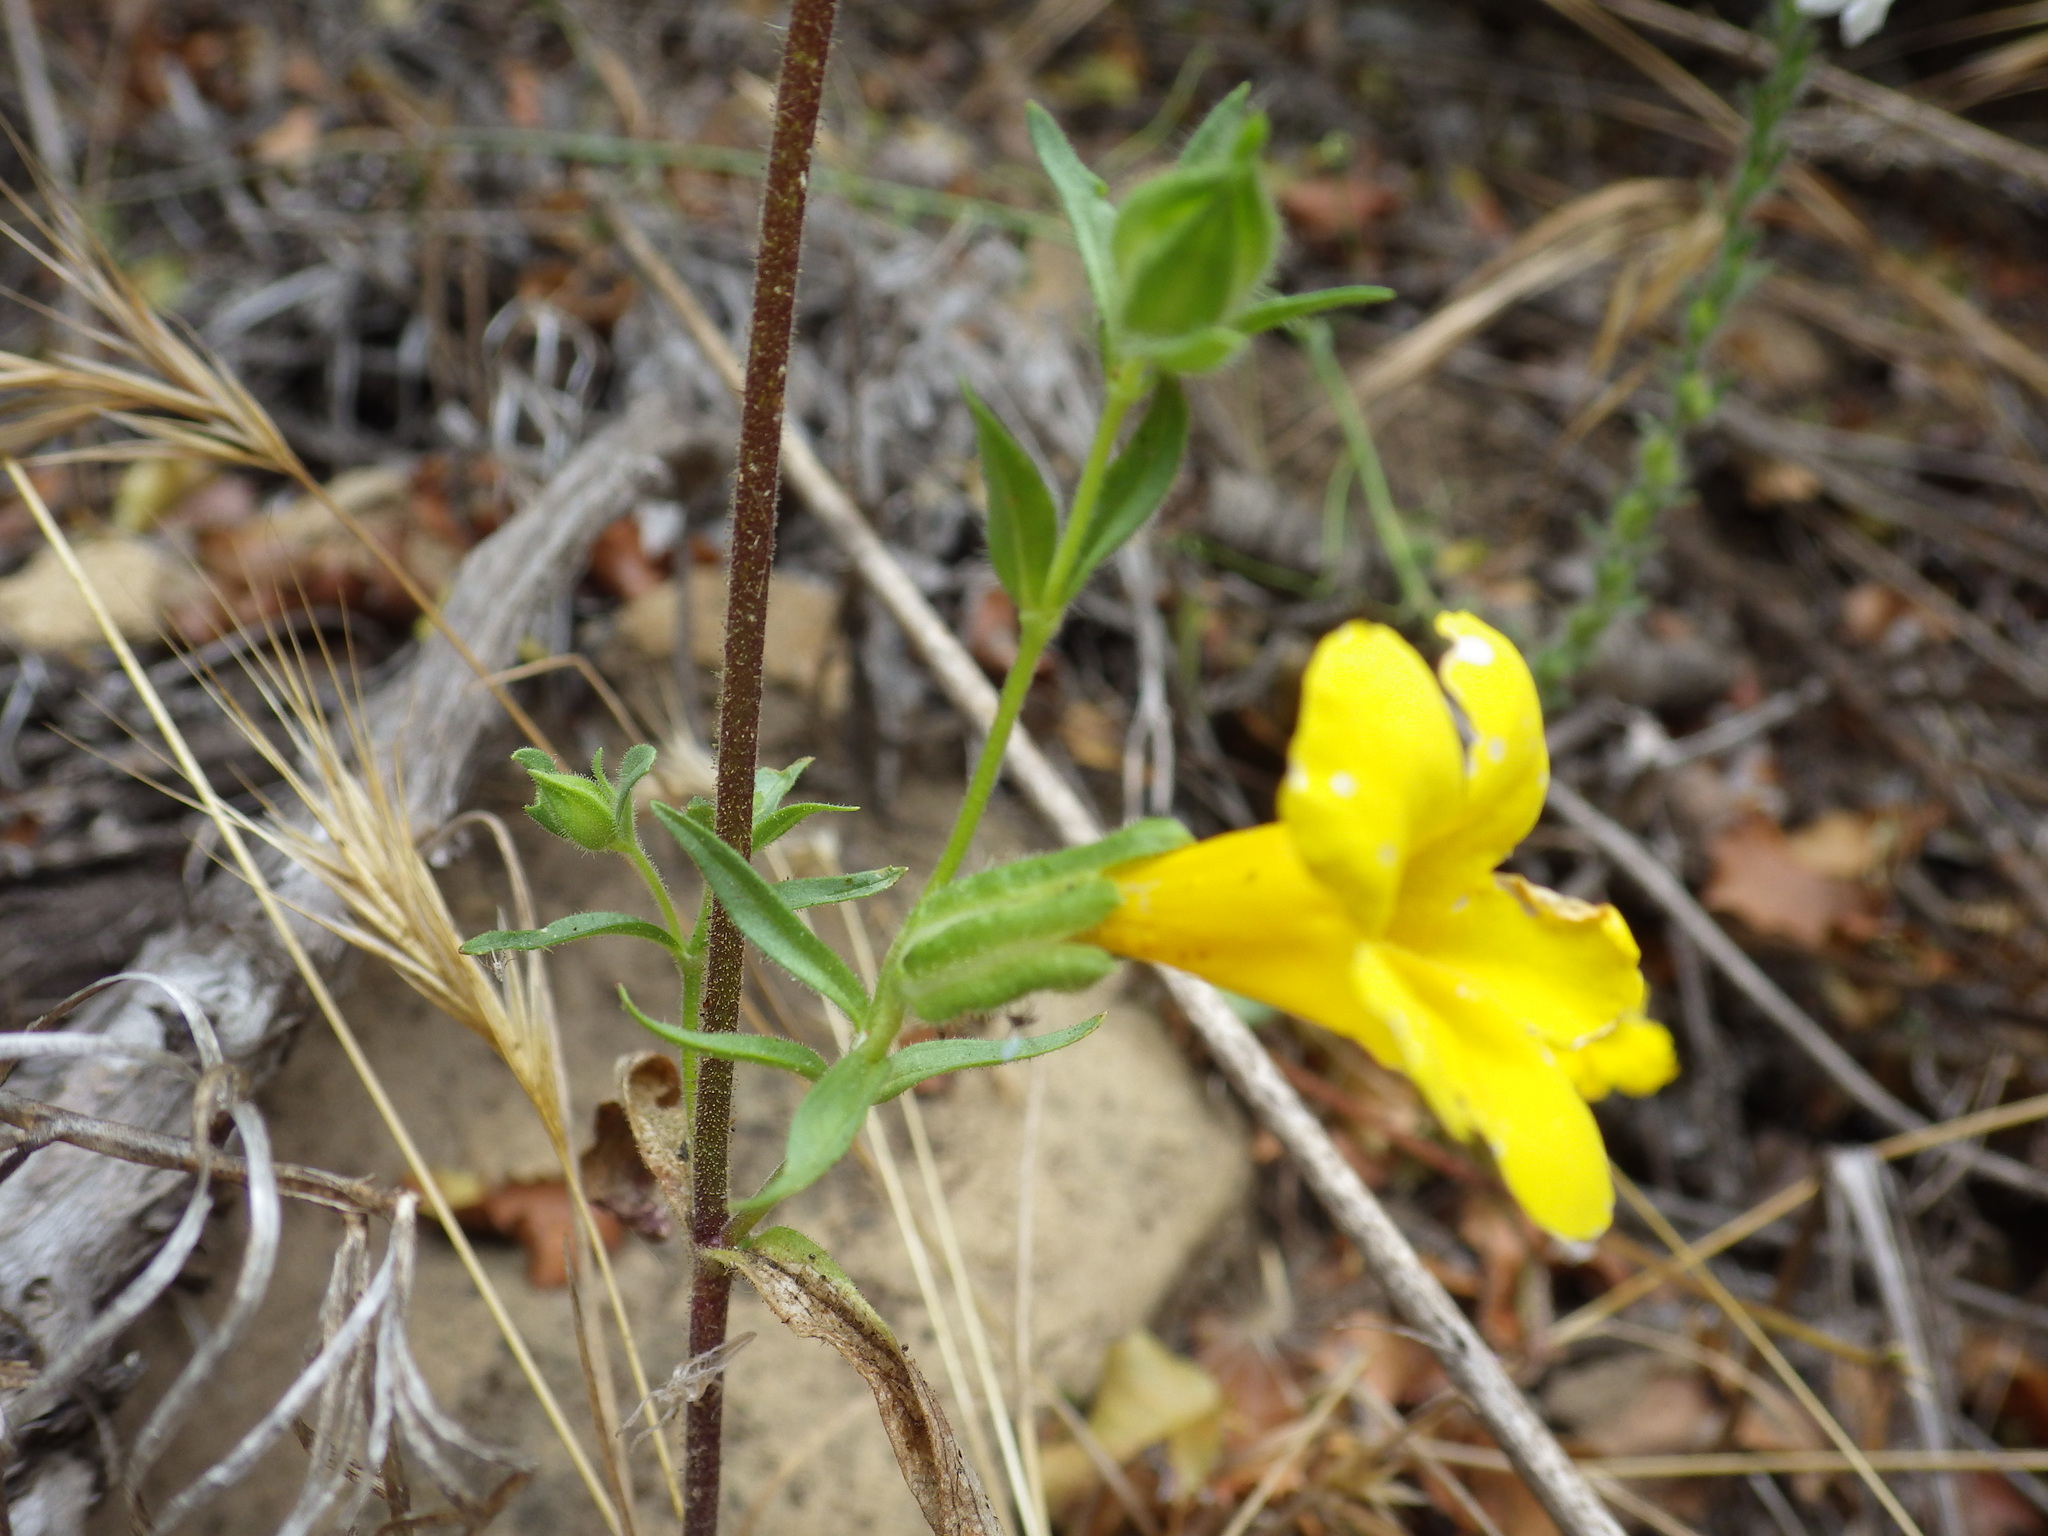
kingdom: Plantae
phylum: Tracheophyta
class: Magnoliopsida
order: Lamiales
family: Phrymaceae
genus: Diplacus
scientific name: Diplacus brevipes
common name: Wide-throat yellow monkey-flower
